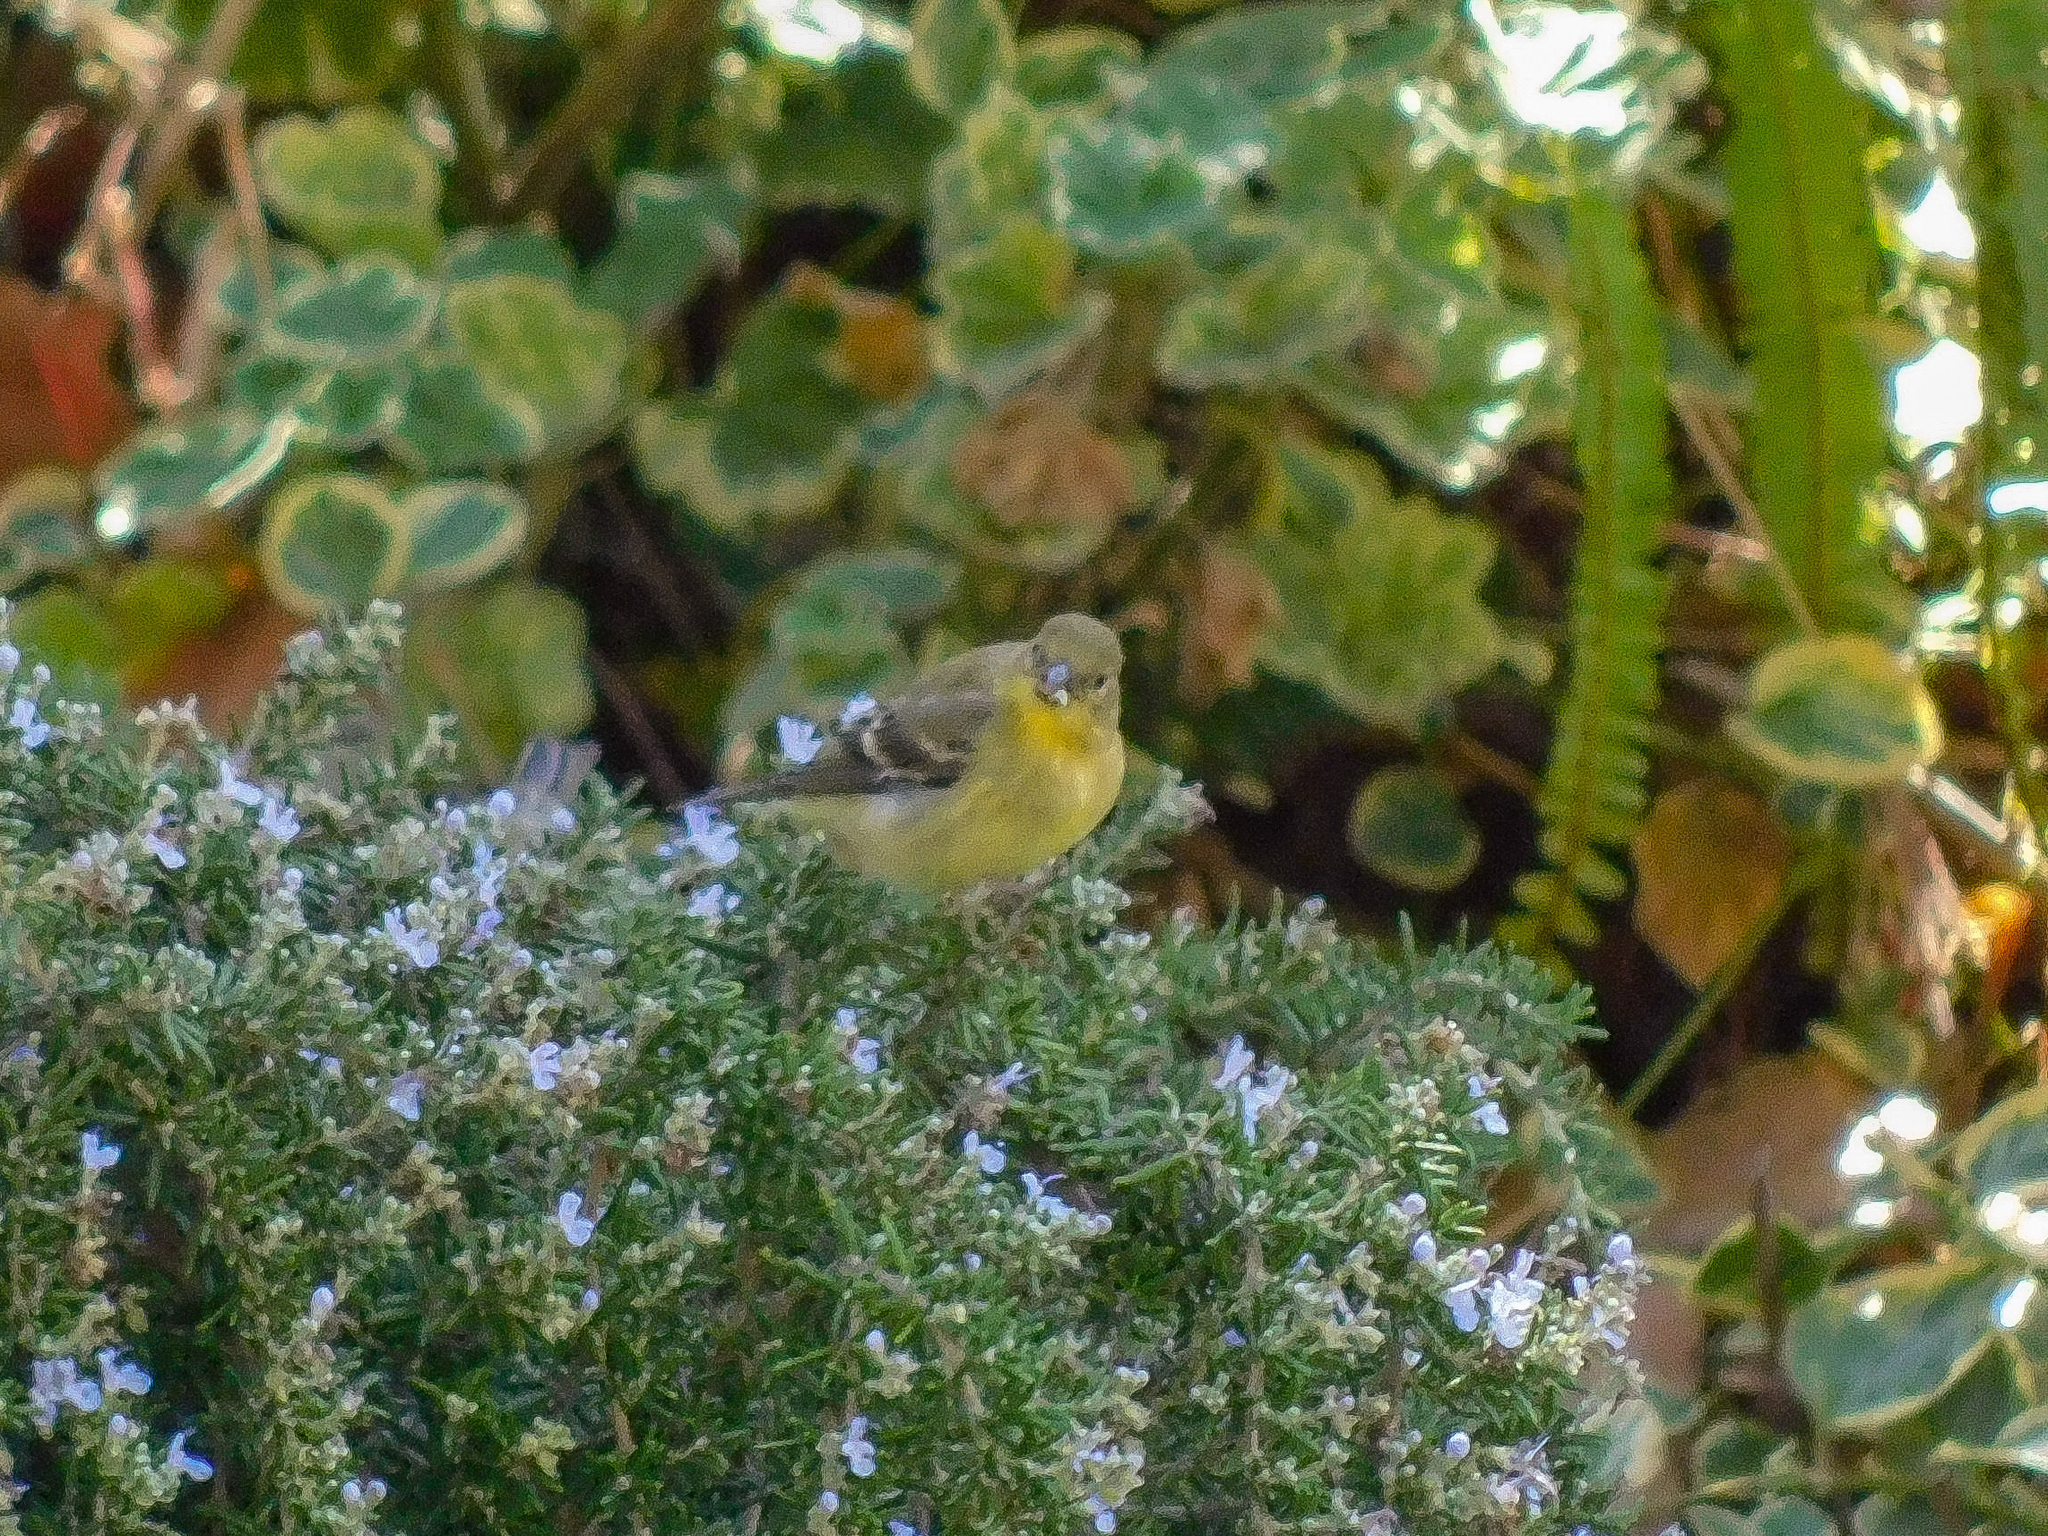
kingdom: Animalia
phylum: Chordata
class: Aves
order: Passeriformes
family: Fringillidae
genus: Spinus
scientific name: Spinus psaltria
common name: Lesser goldfinch
